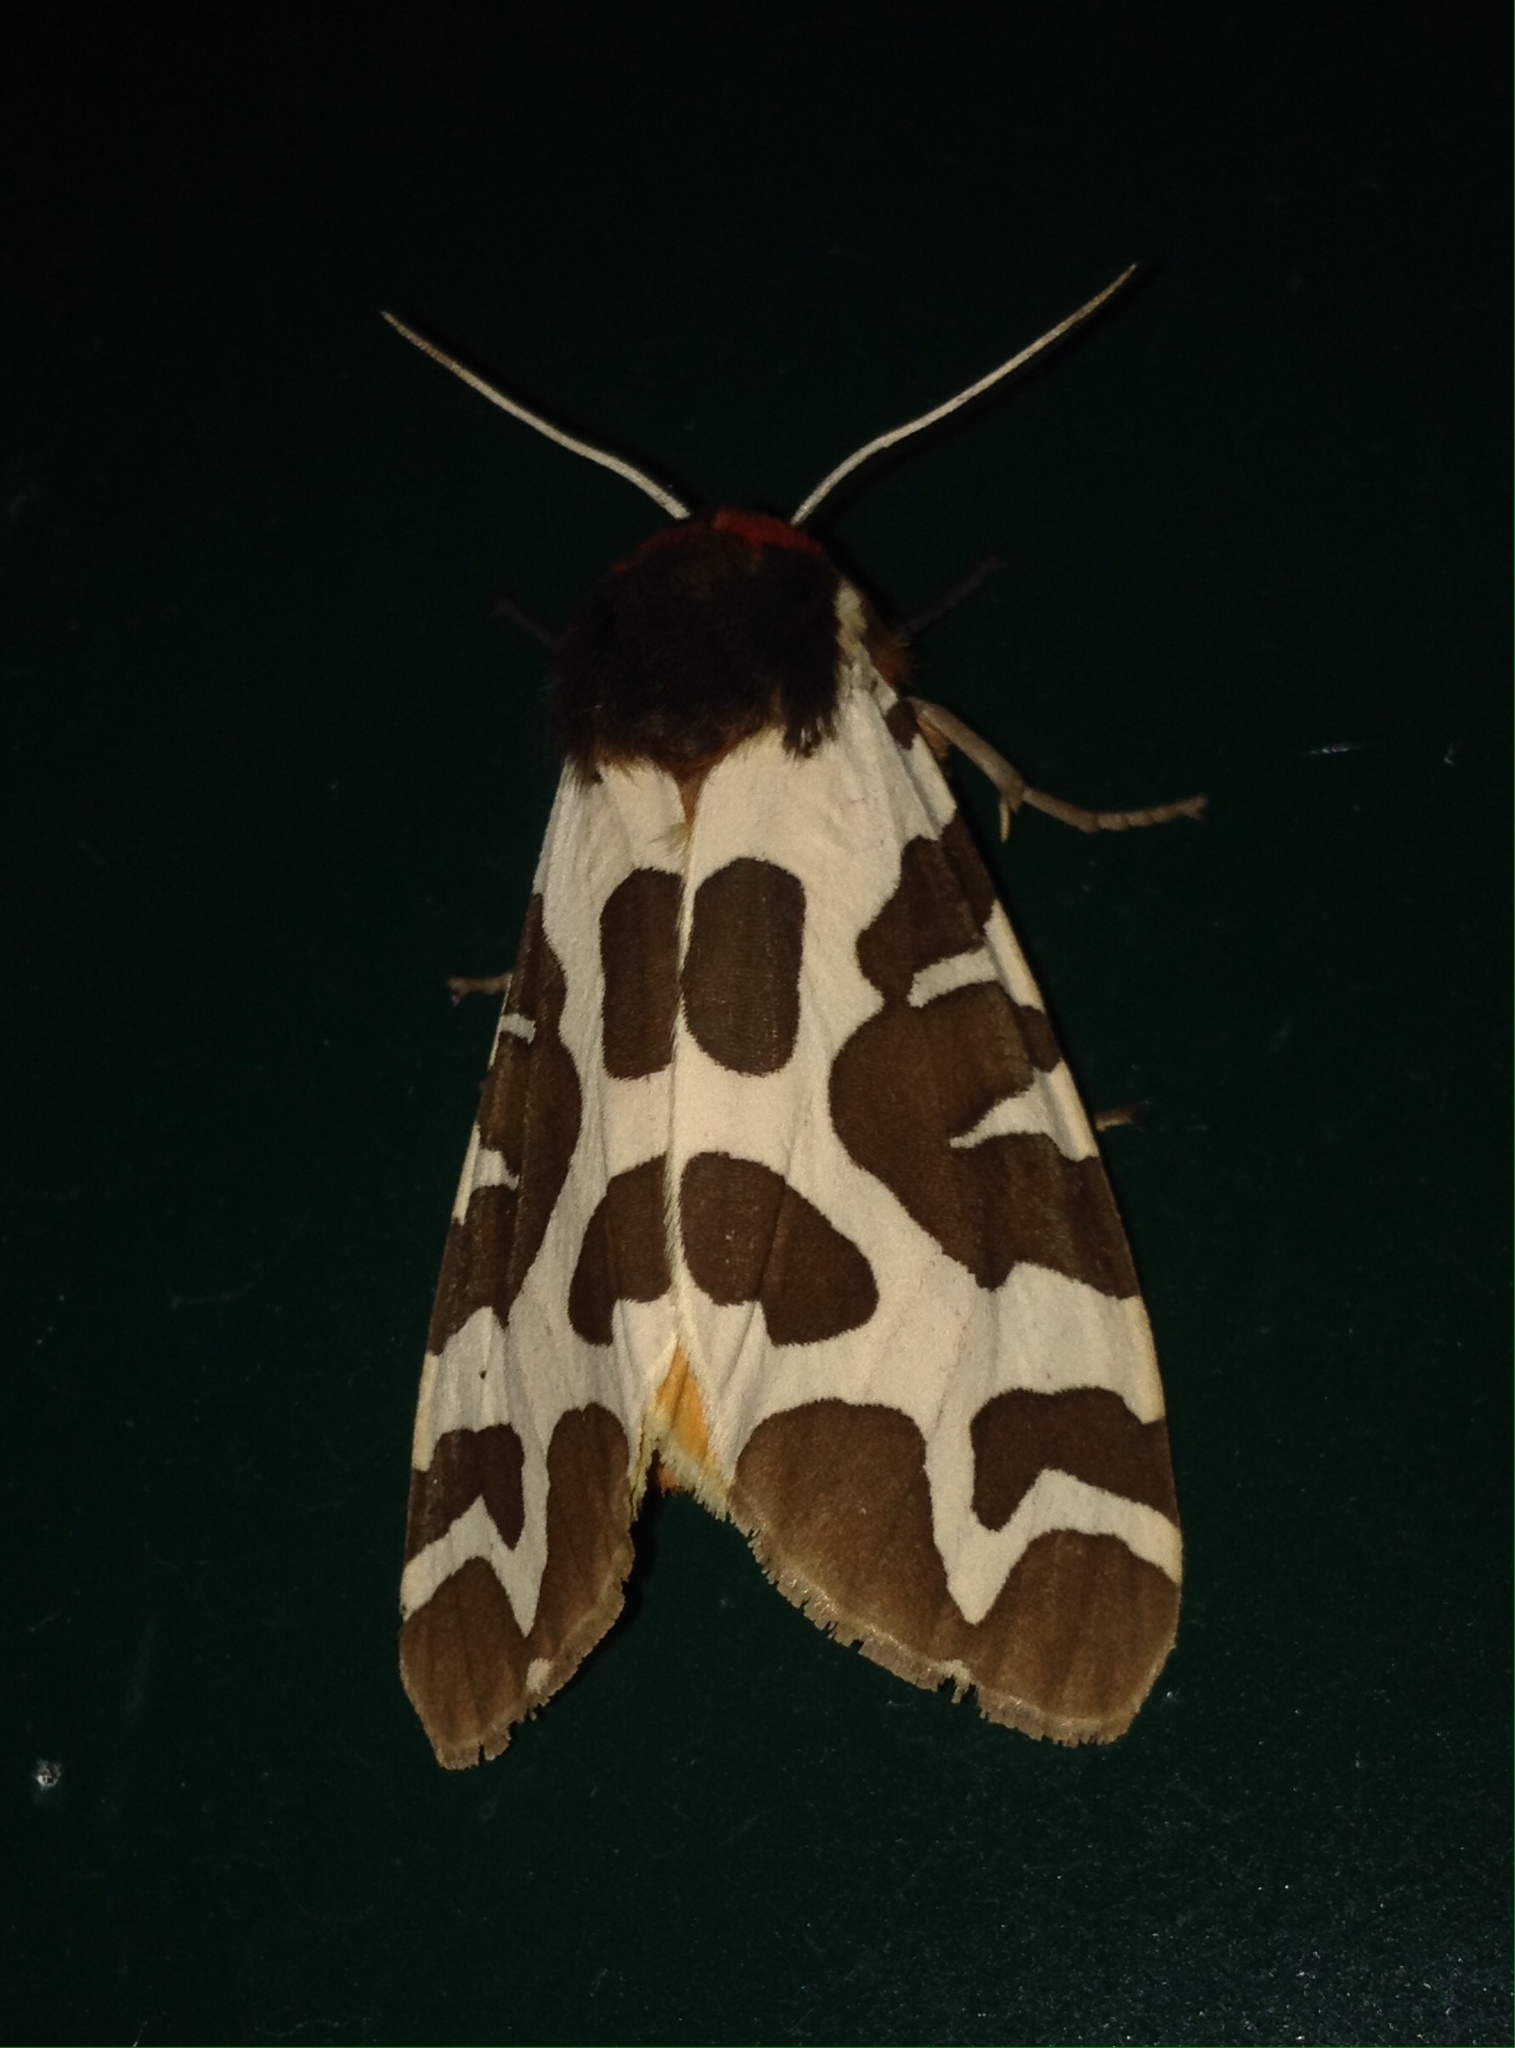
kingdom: Animalia
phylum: Arthropoda
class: Insecta
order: Lepidoptera
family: Erebidae
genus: Arctia
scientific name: Arctia caja
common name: Garden tiger
